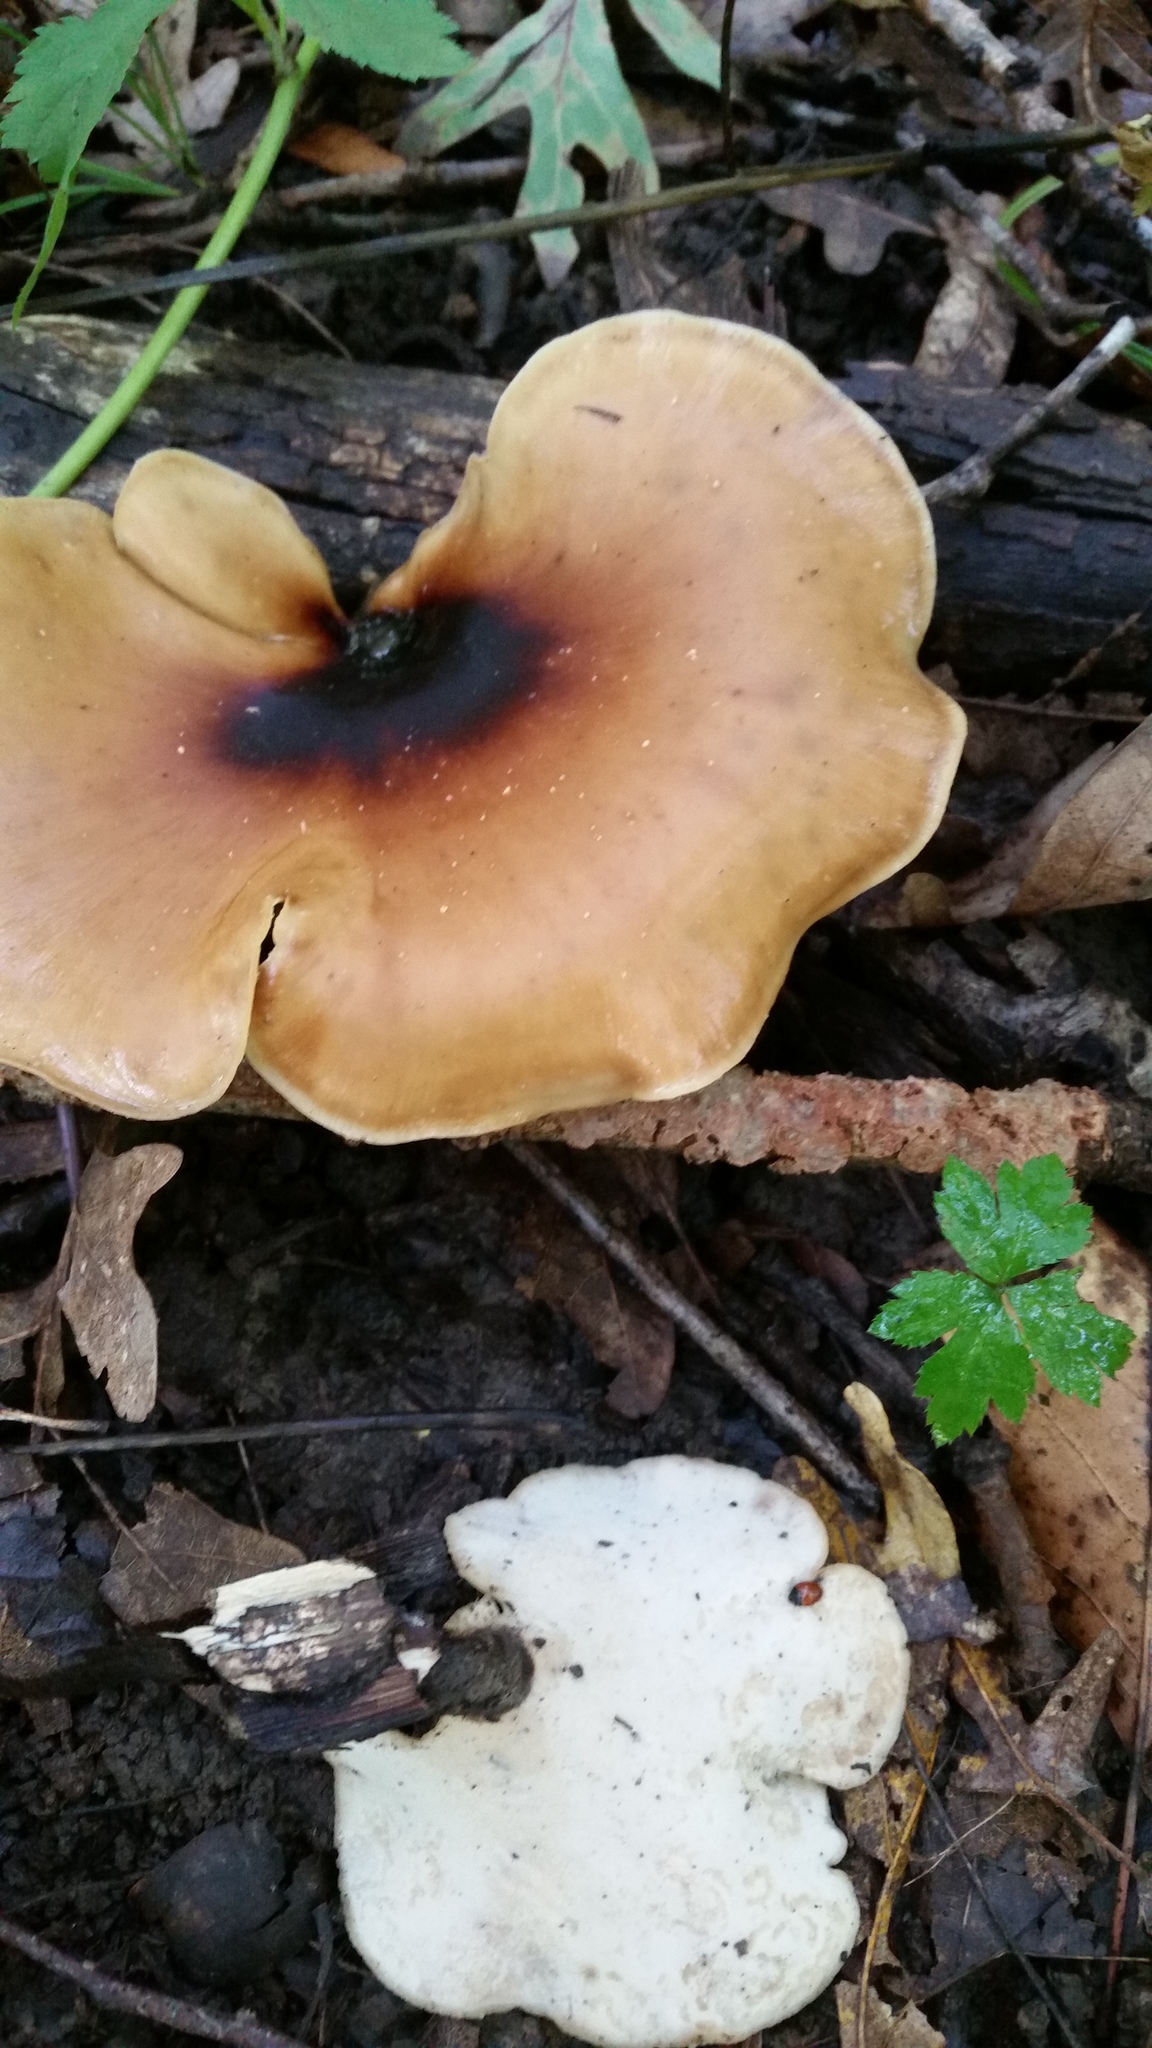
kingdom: Fungi
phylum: Basidiomycota
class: Agaricomycetes
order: Polyporales
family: Polyporaceae
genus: Picipes
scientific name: Picipes badius
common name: Bay polypore
